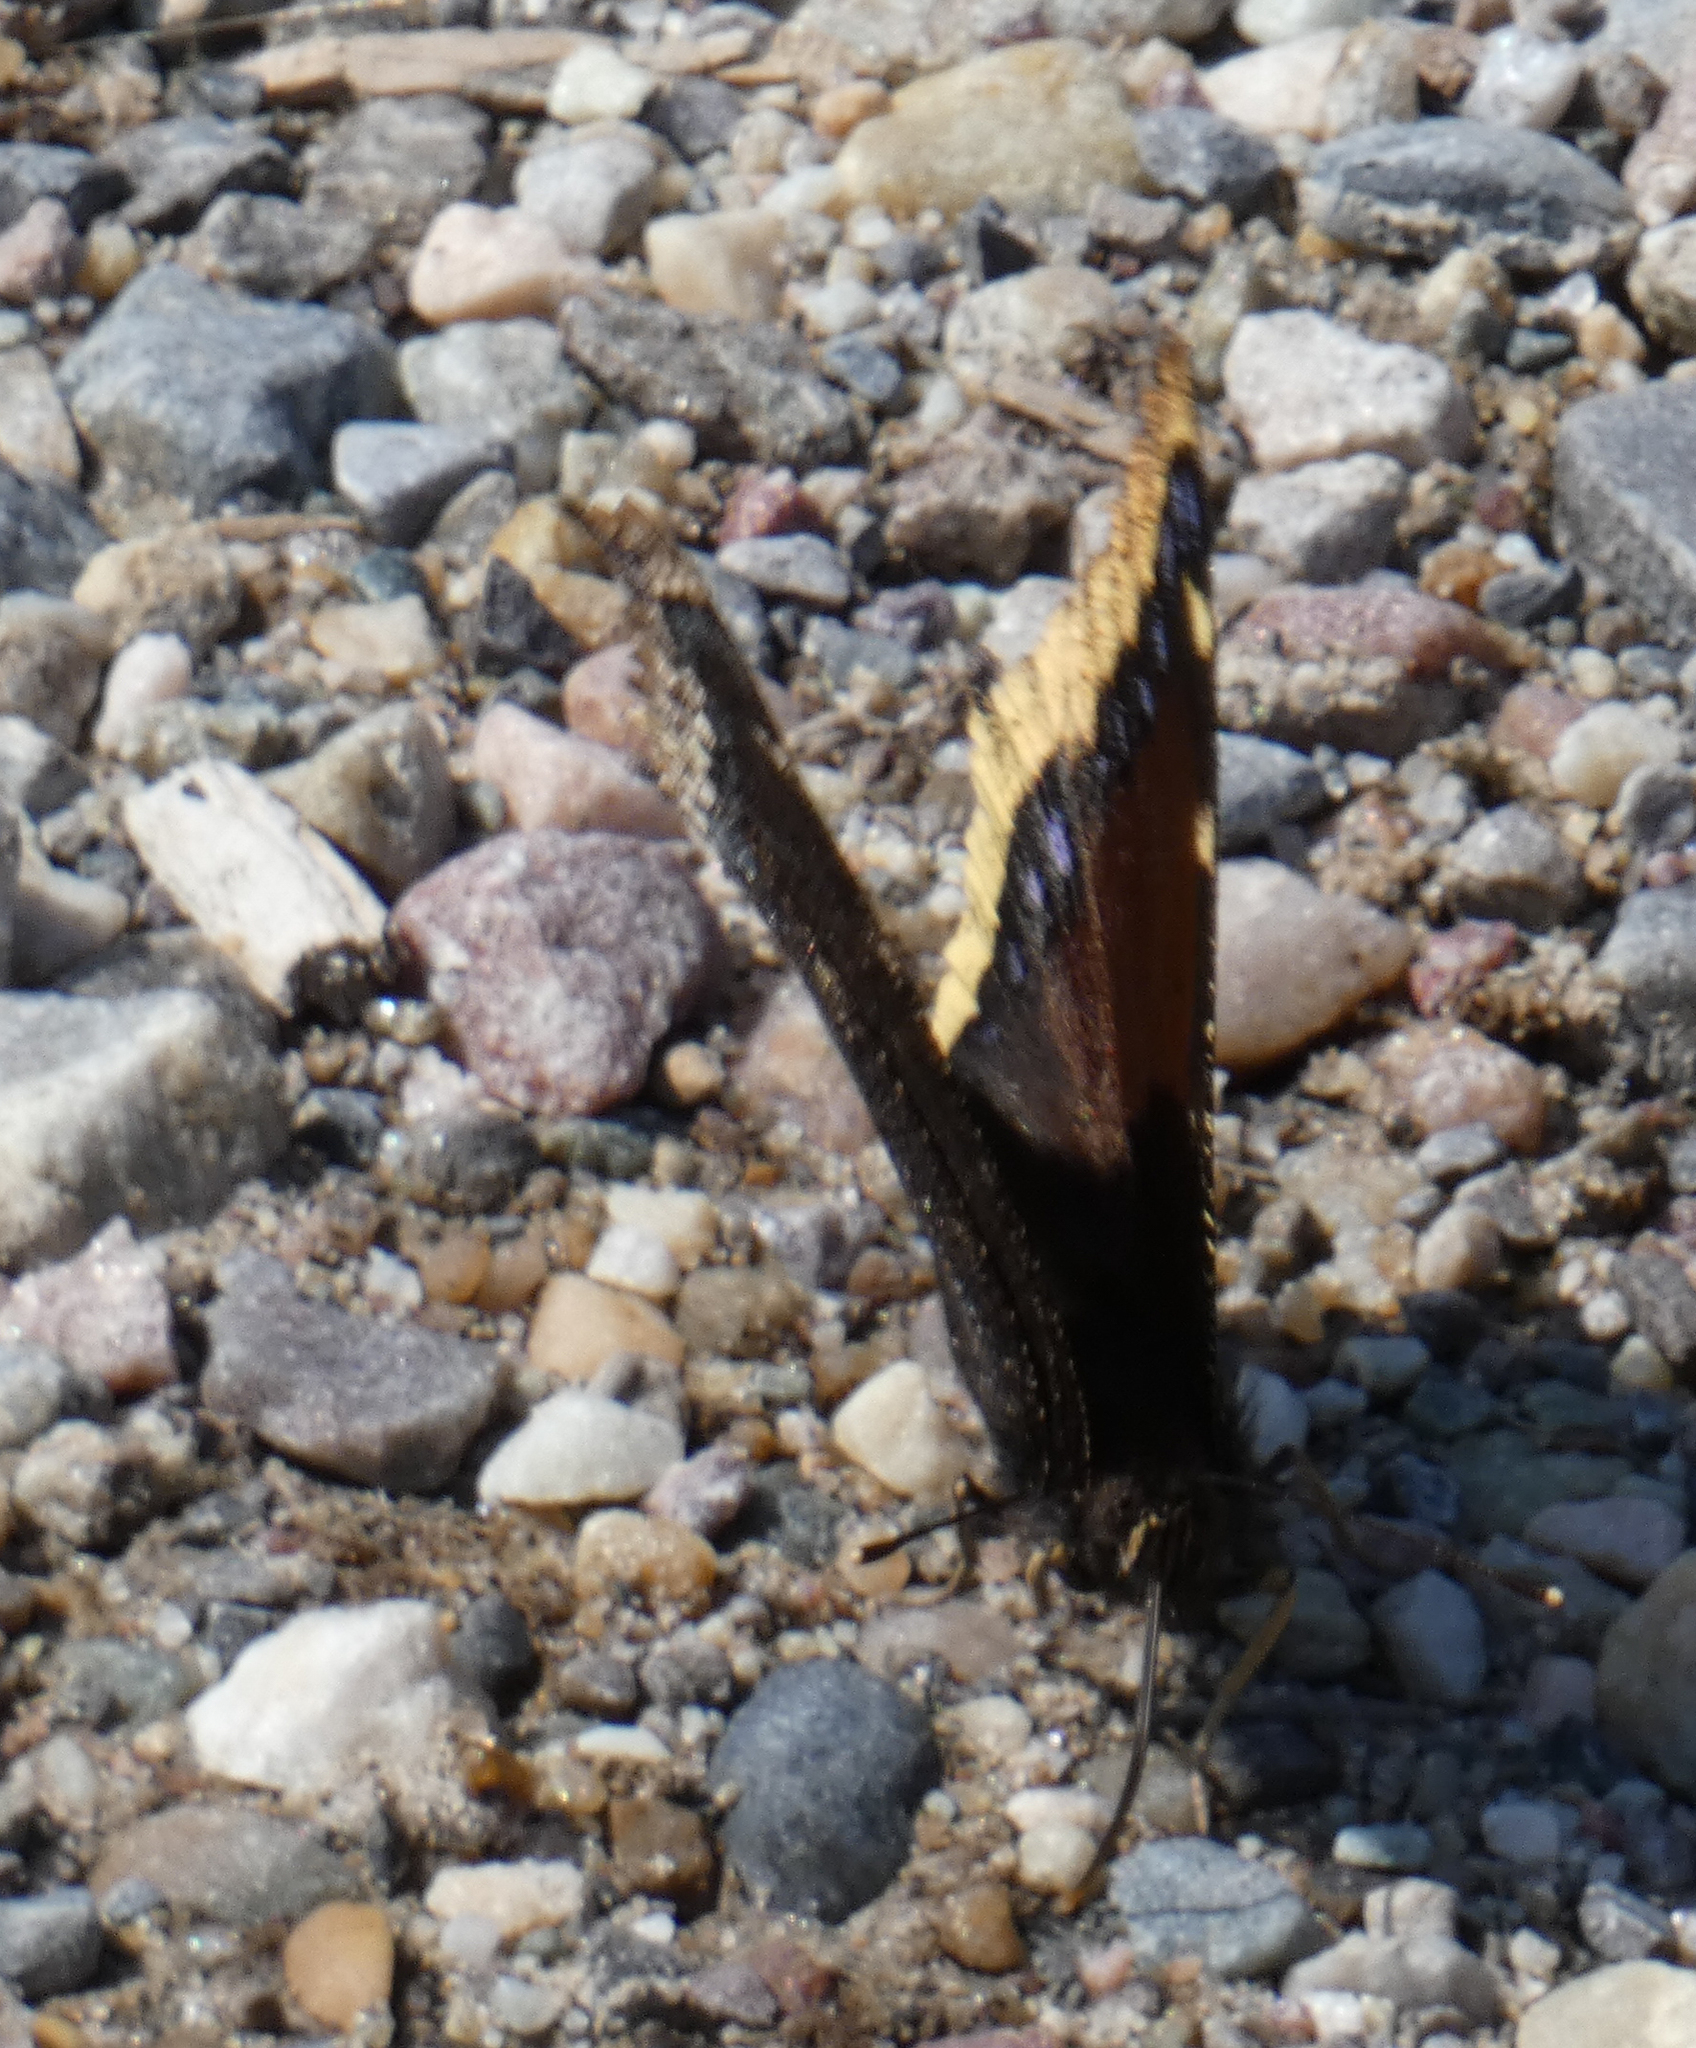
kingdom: Animalia
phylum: Arthropoda
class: Insecta
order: Lepidoptera
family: Nymphalidae
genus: Nymphalis
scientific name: Nymphalis antiopa
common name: Camberwell beauty
